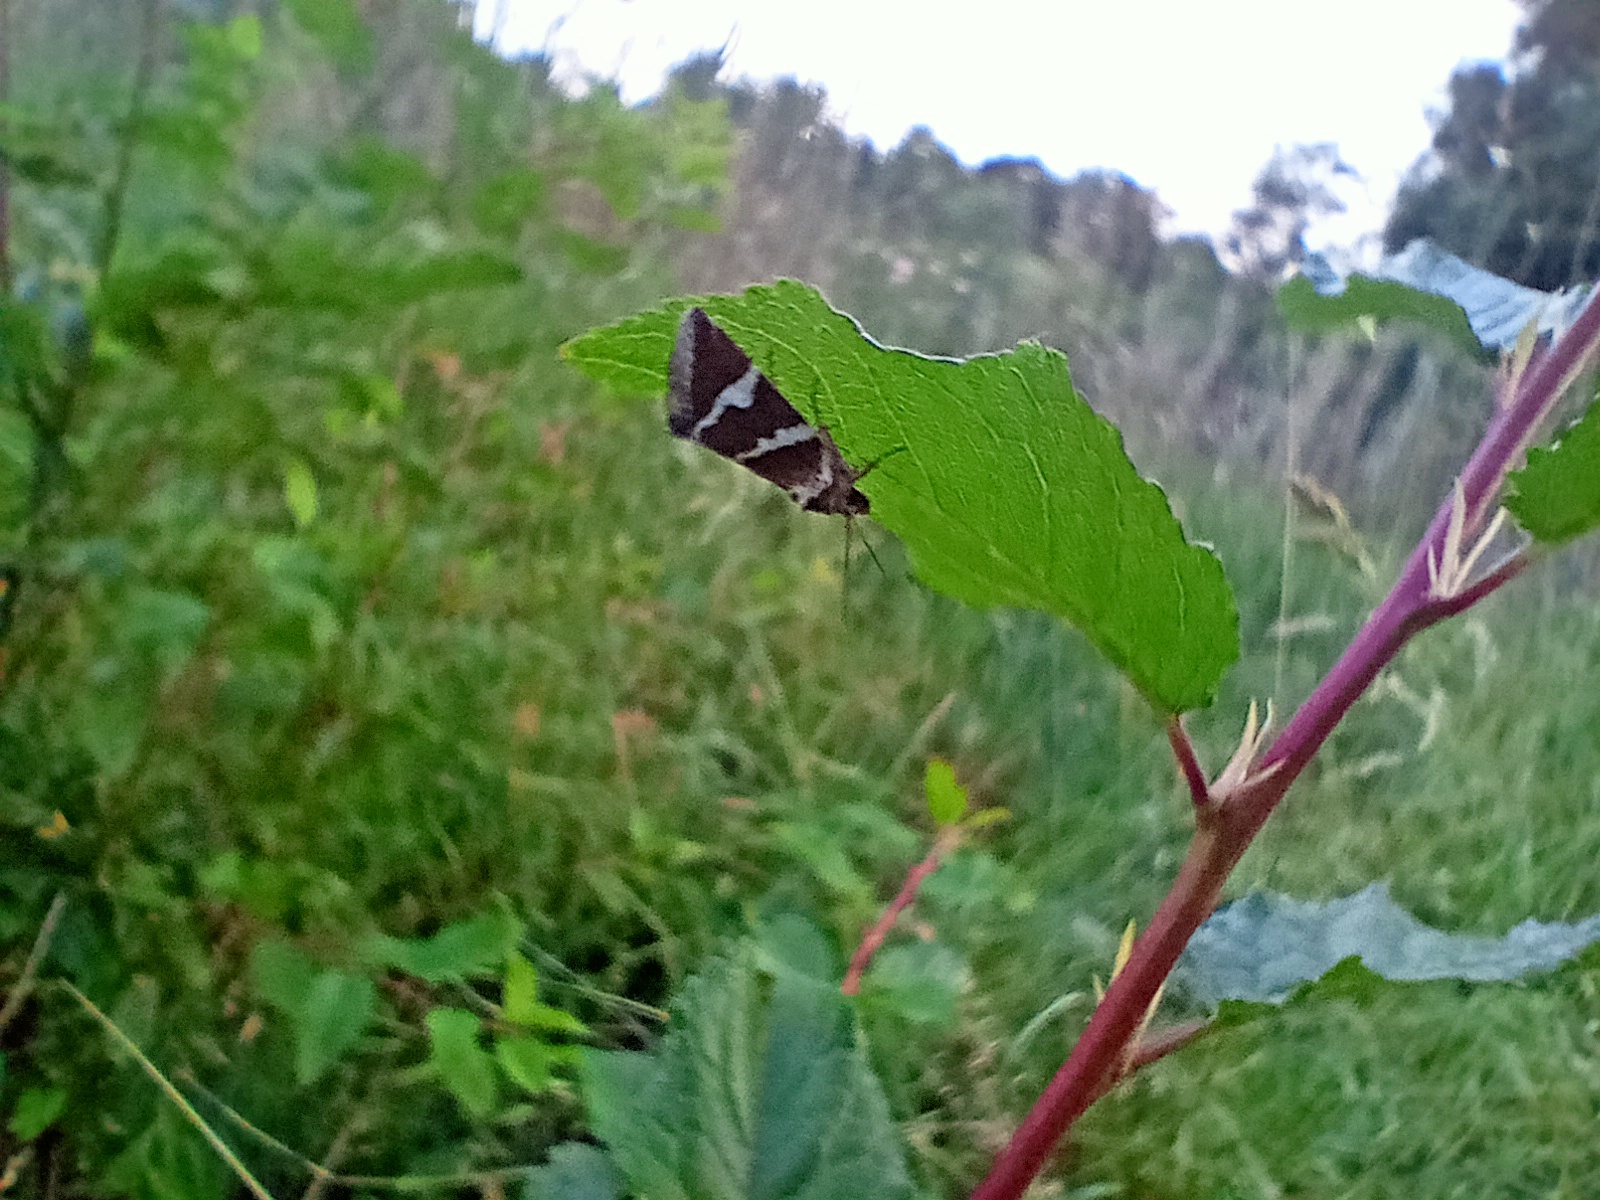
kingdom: Animalia
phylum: Arthropoda
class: Insecta
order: Lepidoptera
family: Noctuidae
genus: Deltote
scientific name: Deltote bankiana
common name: Silver barred
